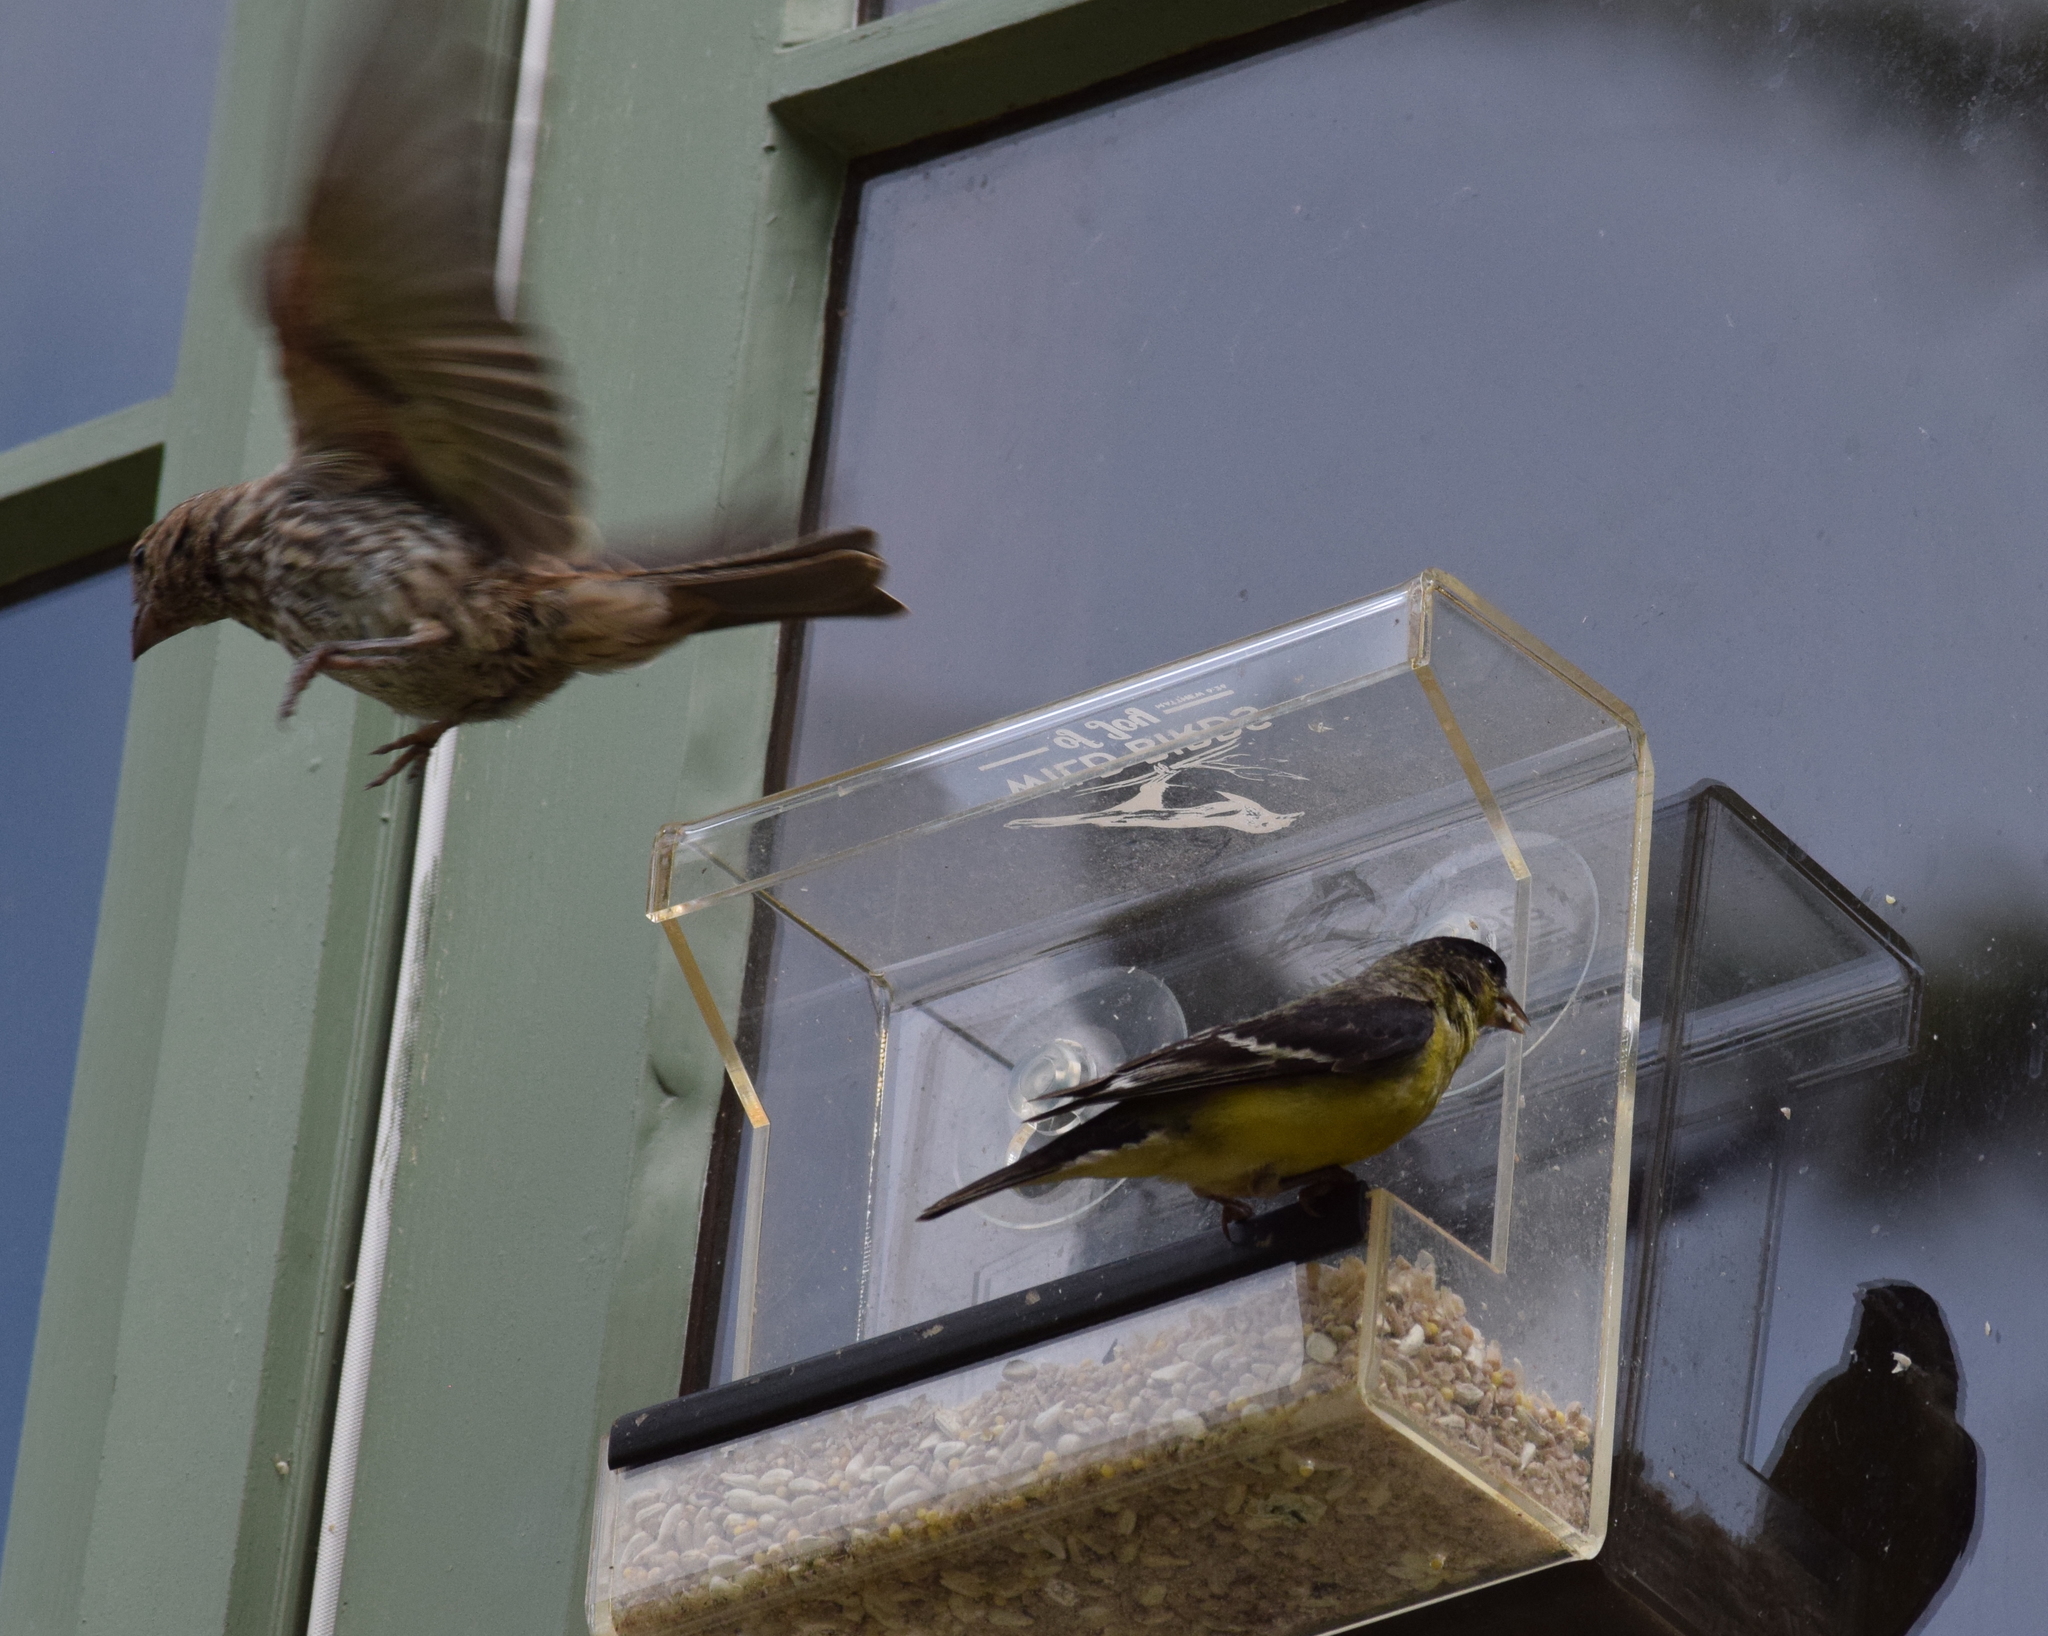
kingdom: Animalia
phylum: Chordata
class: Aves
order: Passeriformes
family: Fringillidae
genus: Spinus
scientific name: Spinus psaltria
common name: Lesser goldfinch
